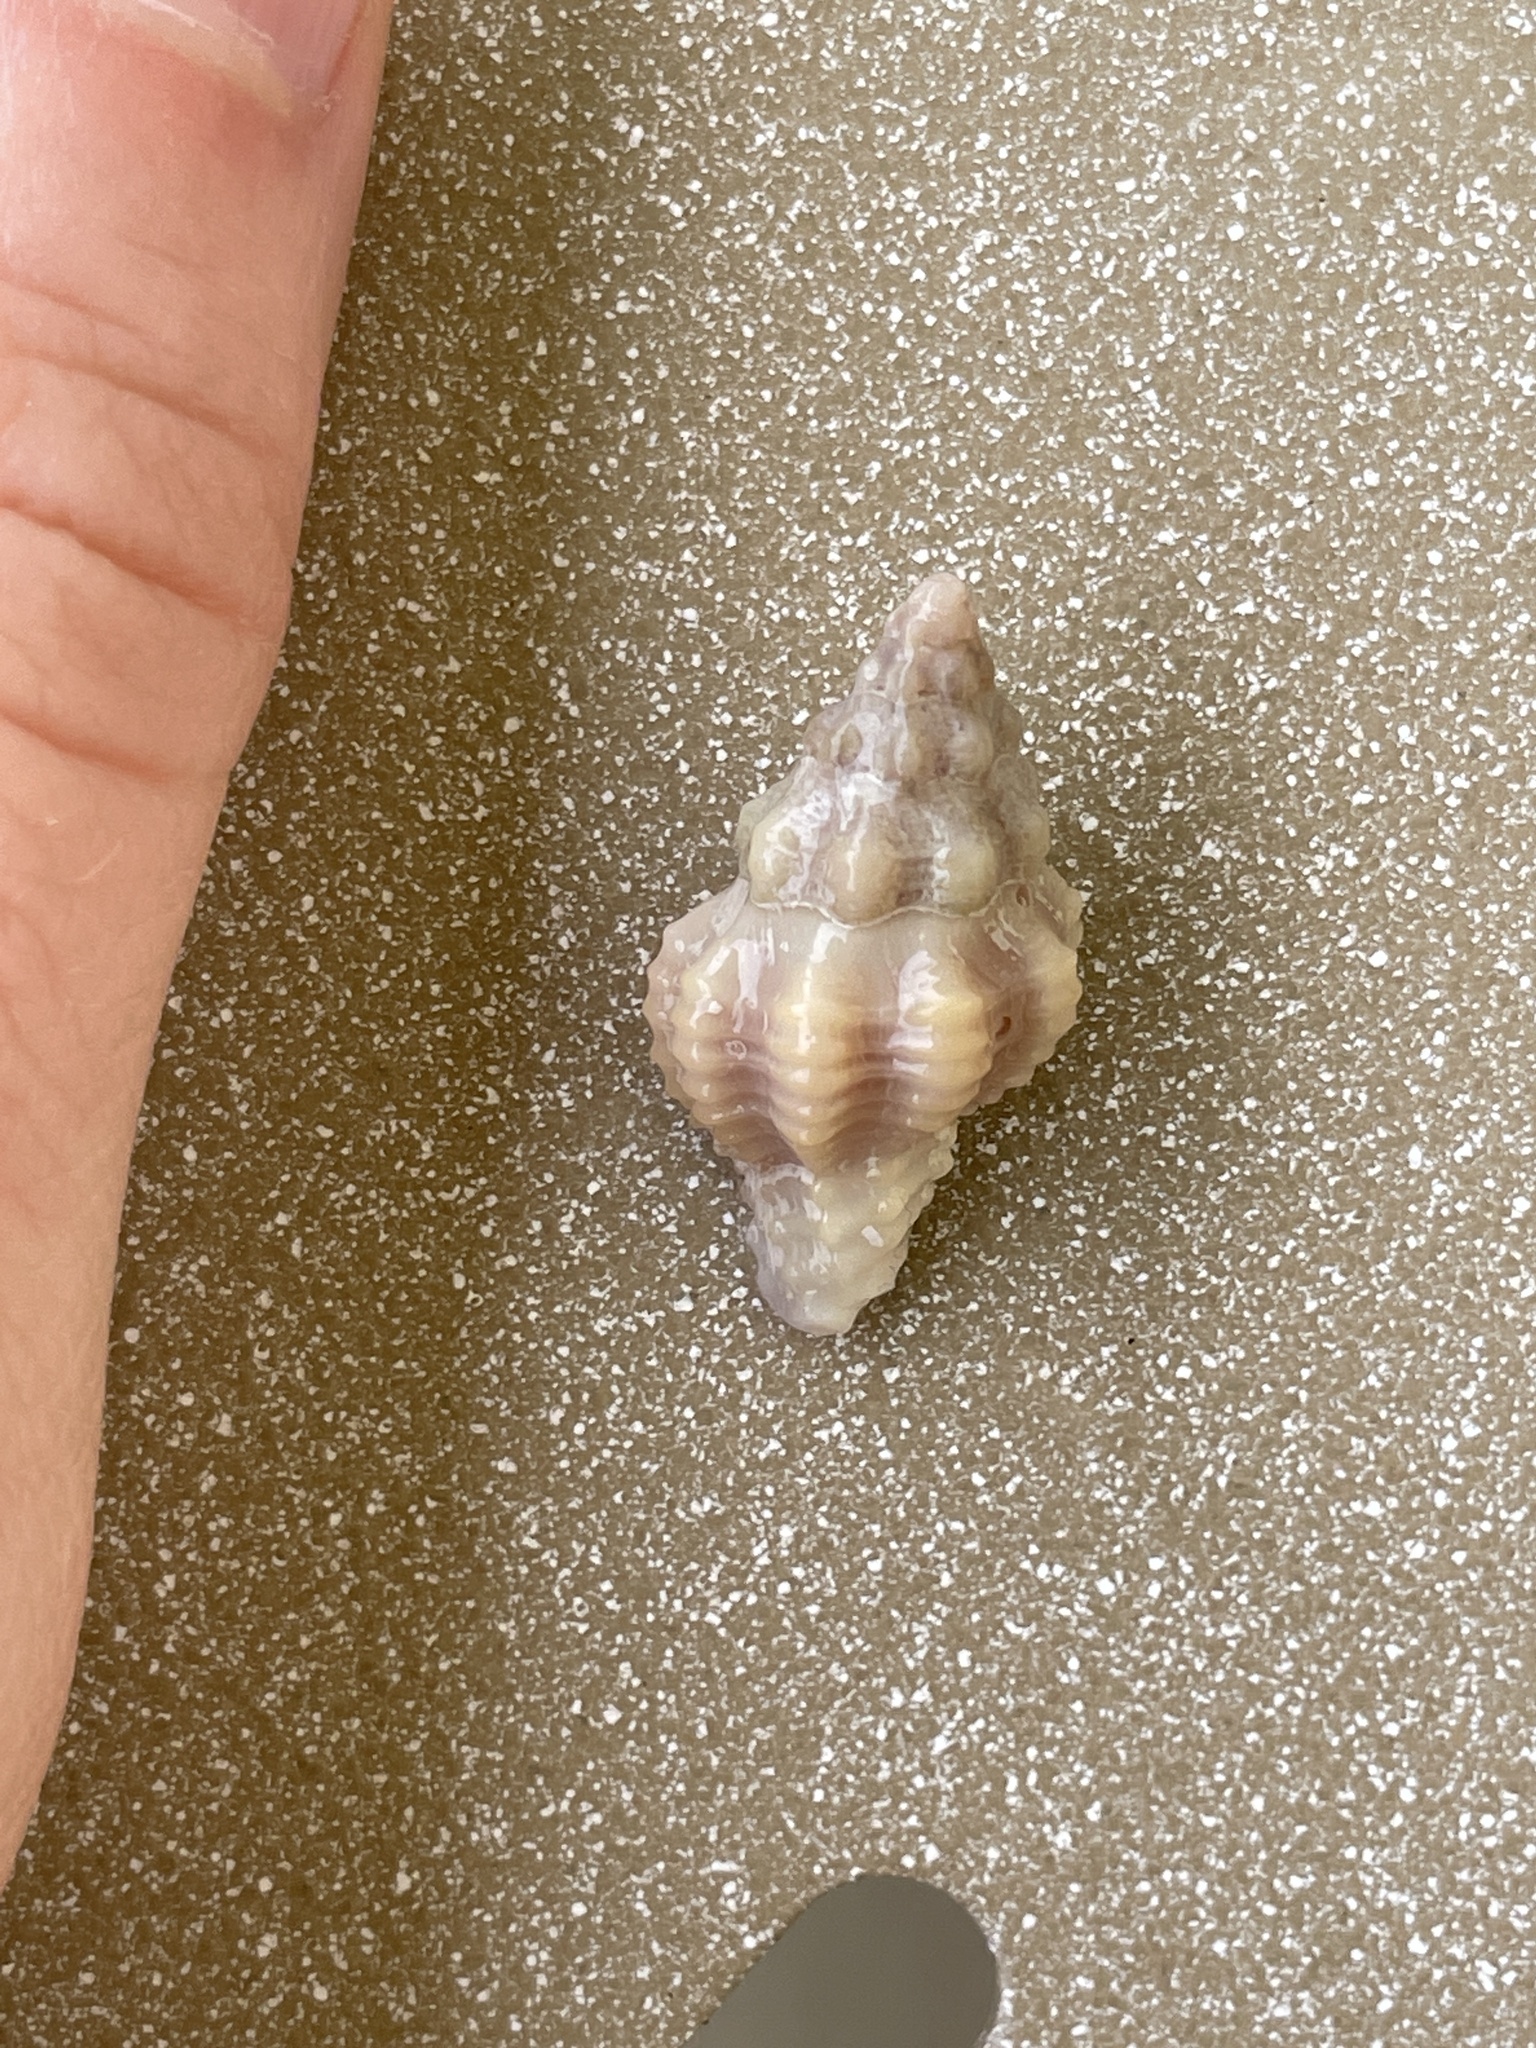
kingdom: Animalia
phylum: Mollusca
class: Gastropoda
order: Neogastropoda
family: Muricidae
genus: Calotrophon
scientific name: Calotrophon ostrearum
